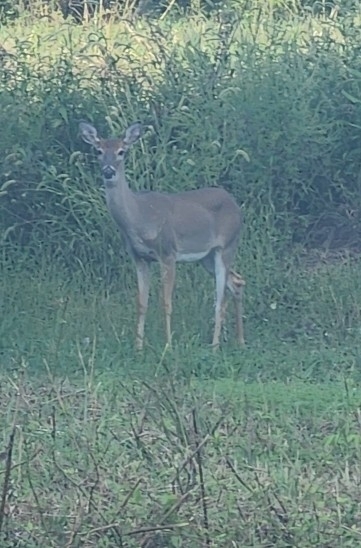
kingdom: Animalia
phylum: Chordata
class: Mammalia
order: Artiodactyla
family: Cervidae
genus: Odocoileus
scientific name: Odocoileus virginianus
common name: White-tailed deer
